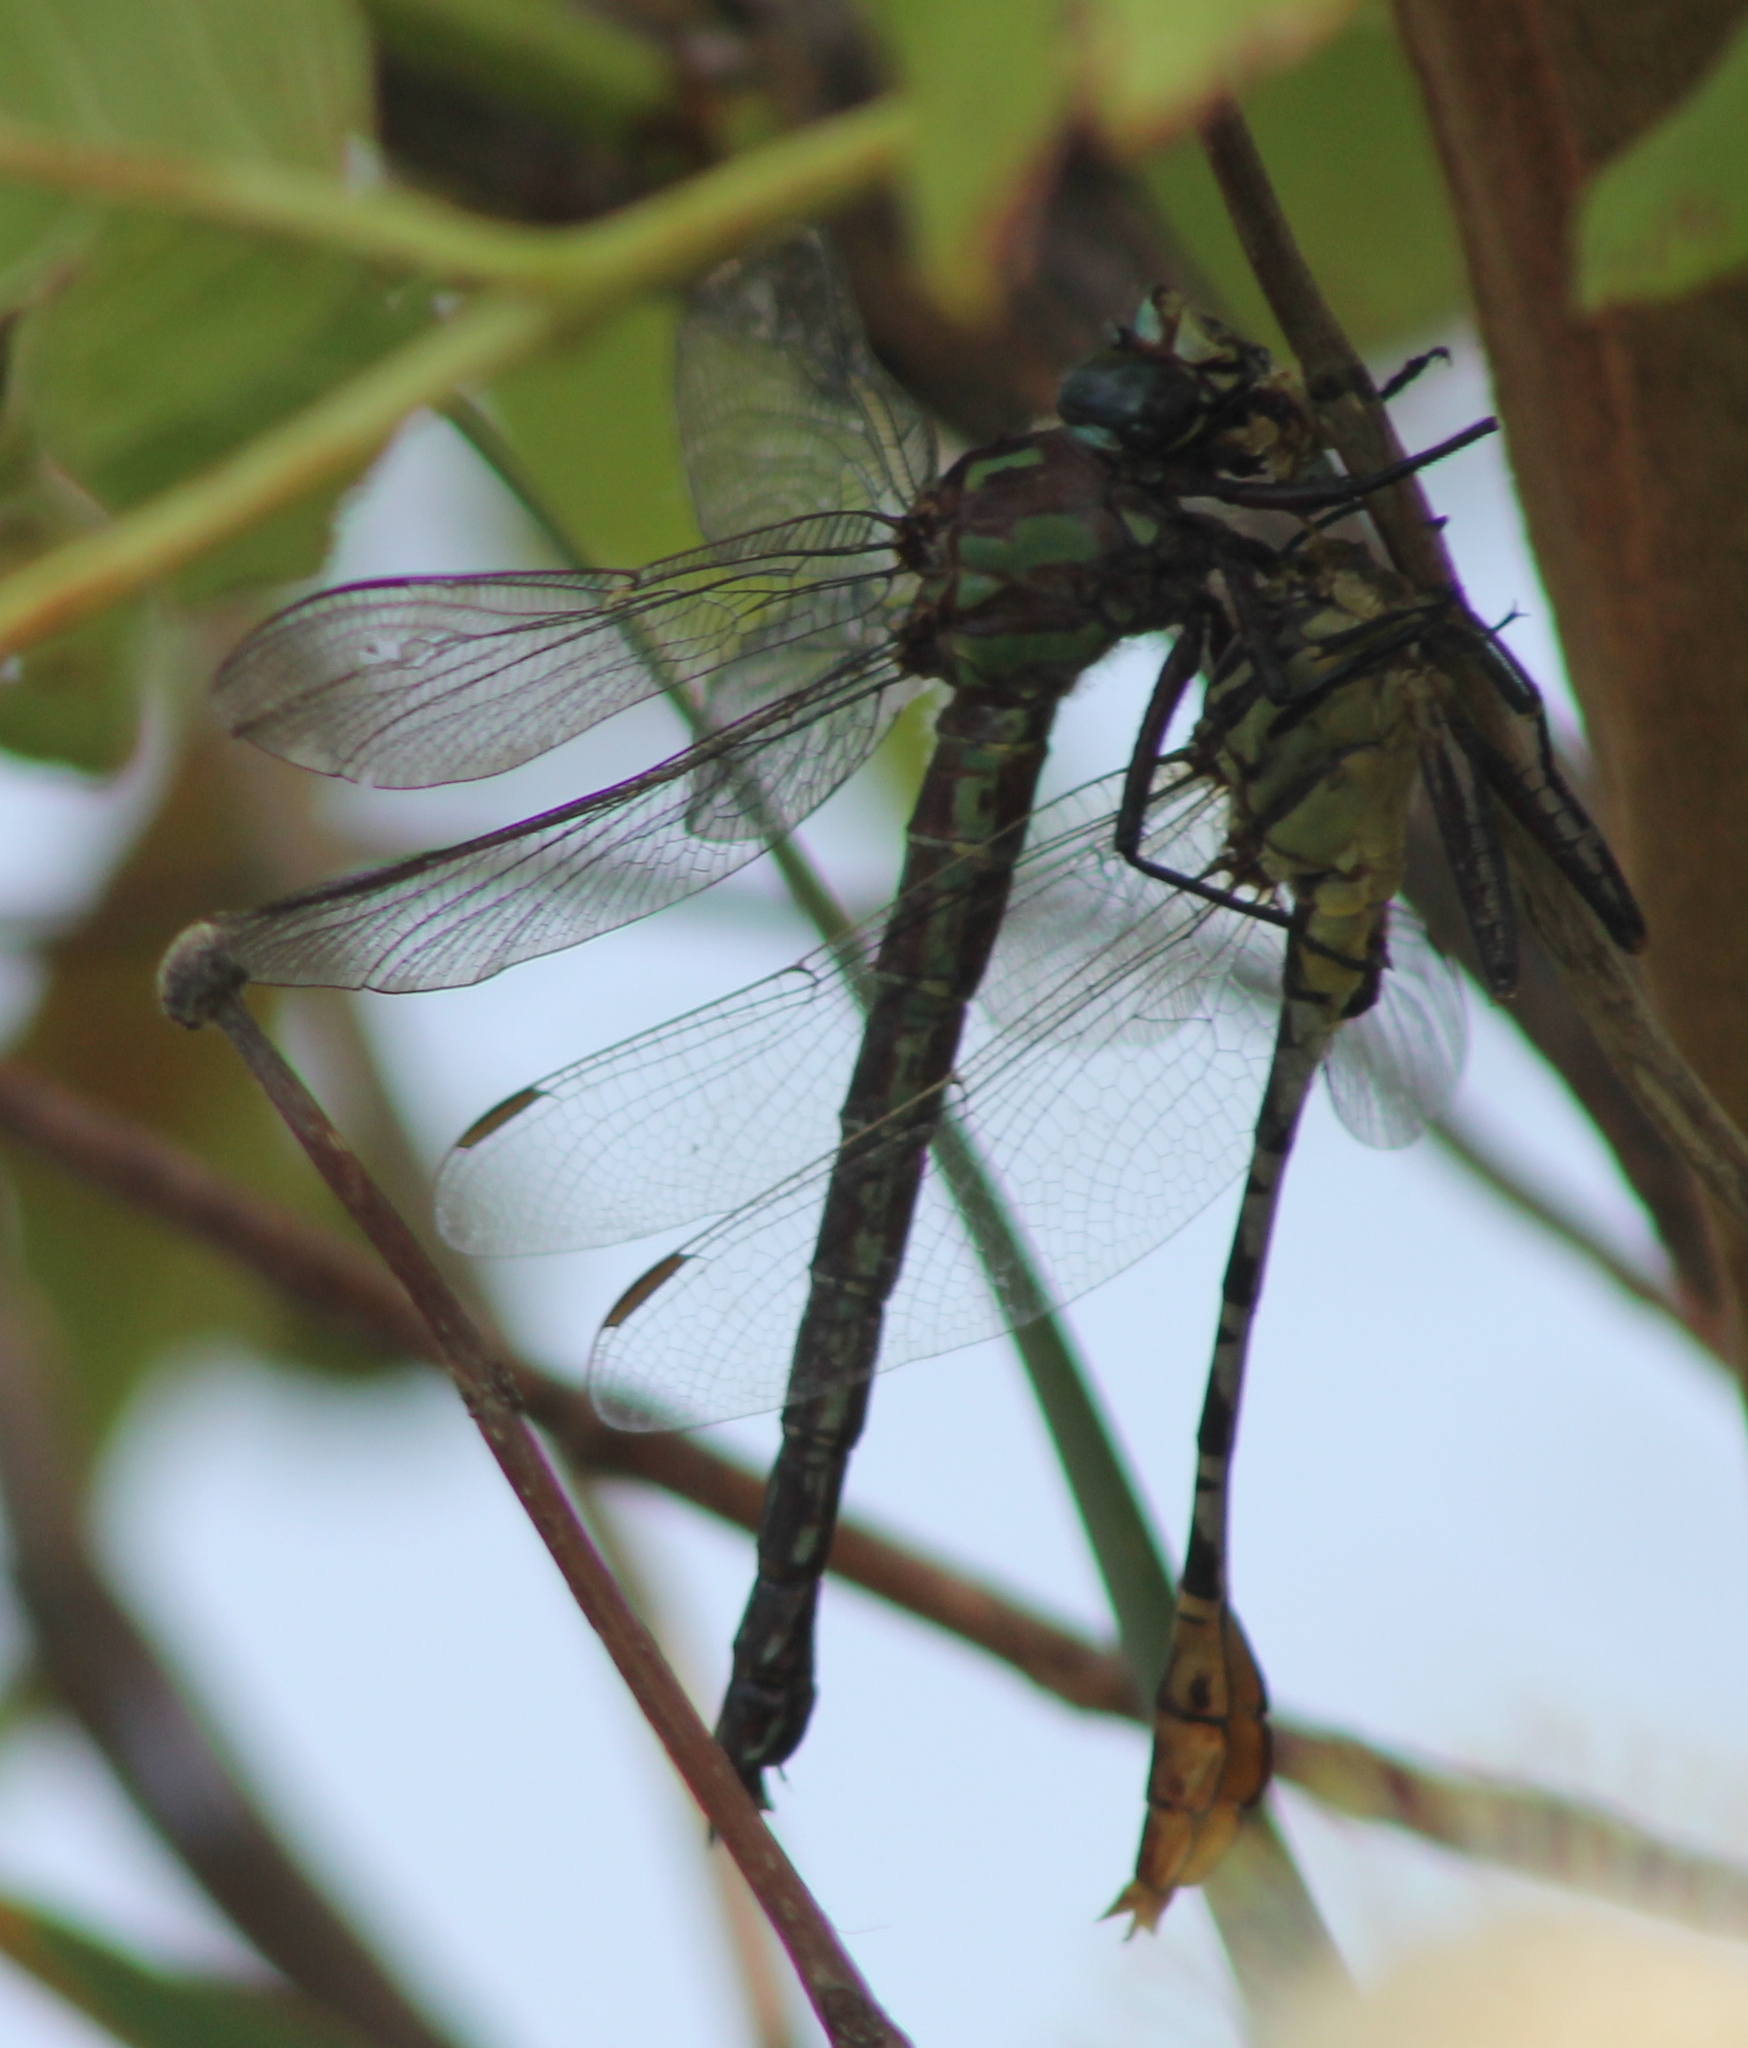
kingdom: Animalia
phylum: Arthropoda
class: Insecta
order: Odonata
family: Aeshnidae
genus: Nasiaeschna
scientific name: Nasiaeschna pentacantha
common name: Cyrano darner
